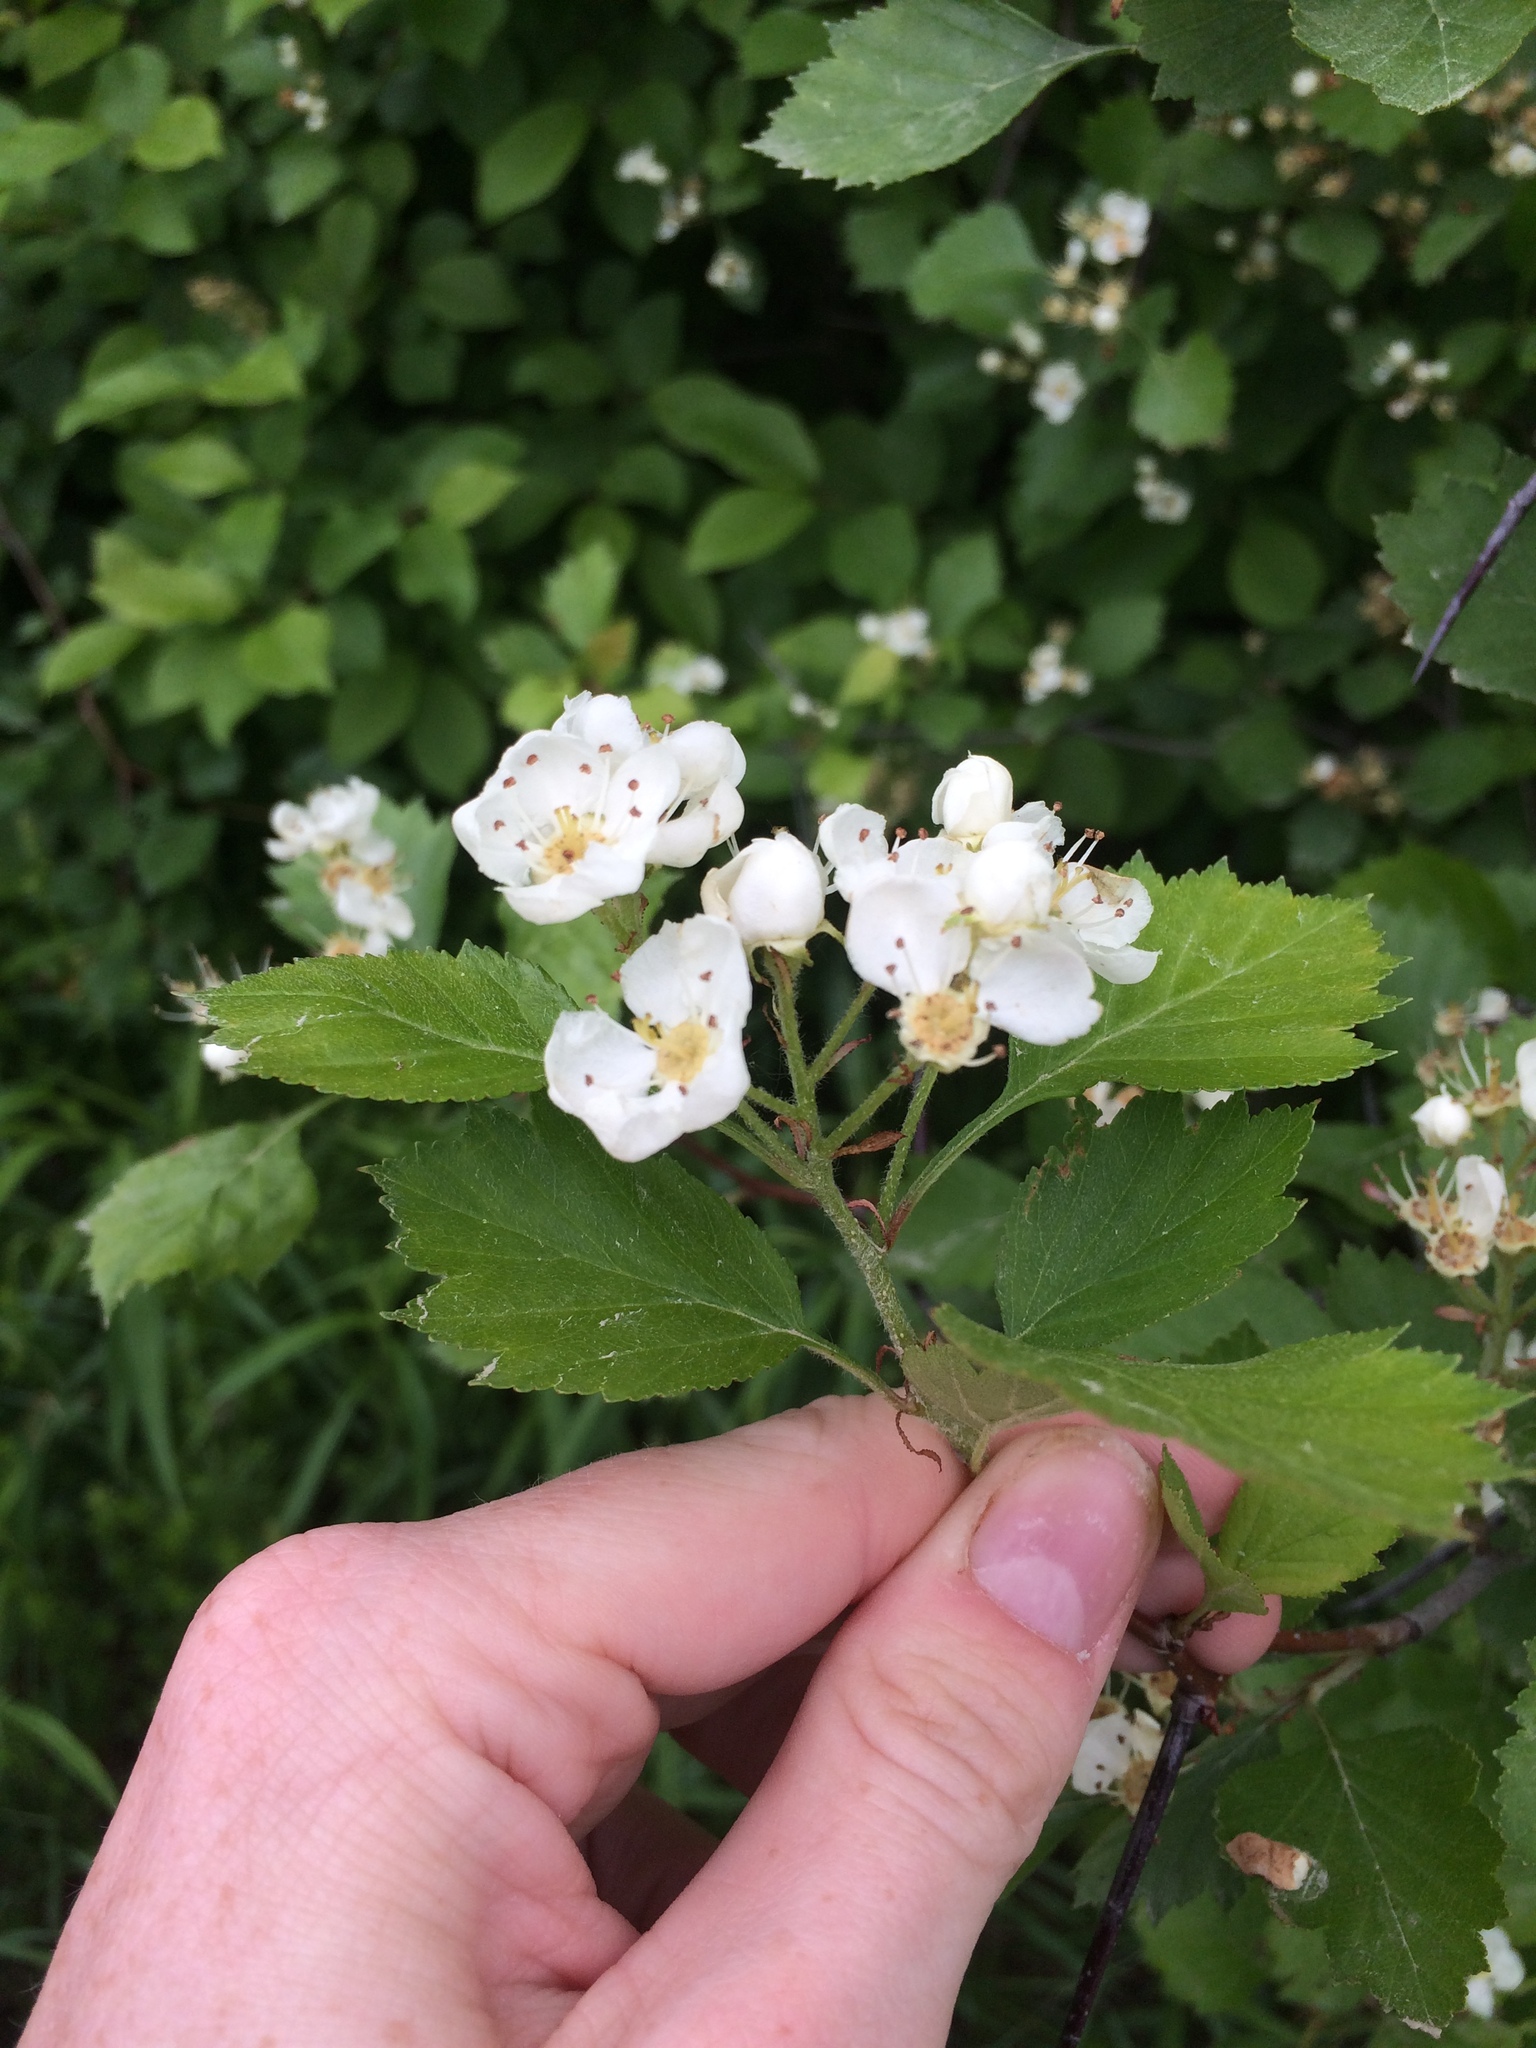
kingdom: Plantae
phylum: Tracheophyta
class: Magnoliopsida
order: Rosales
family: Rosaceae
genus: Crataegus
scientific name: Crataegus chrysocarpa
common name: Fire-berry hawthorn
